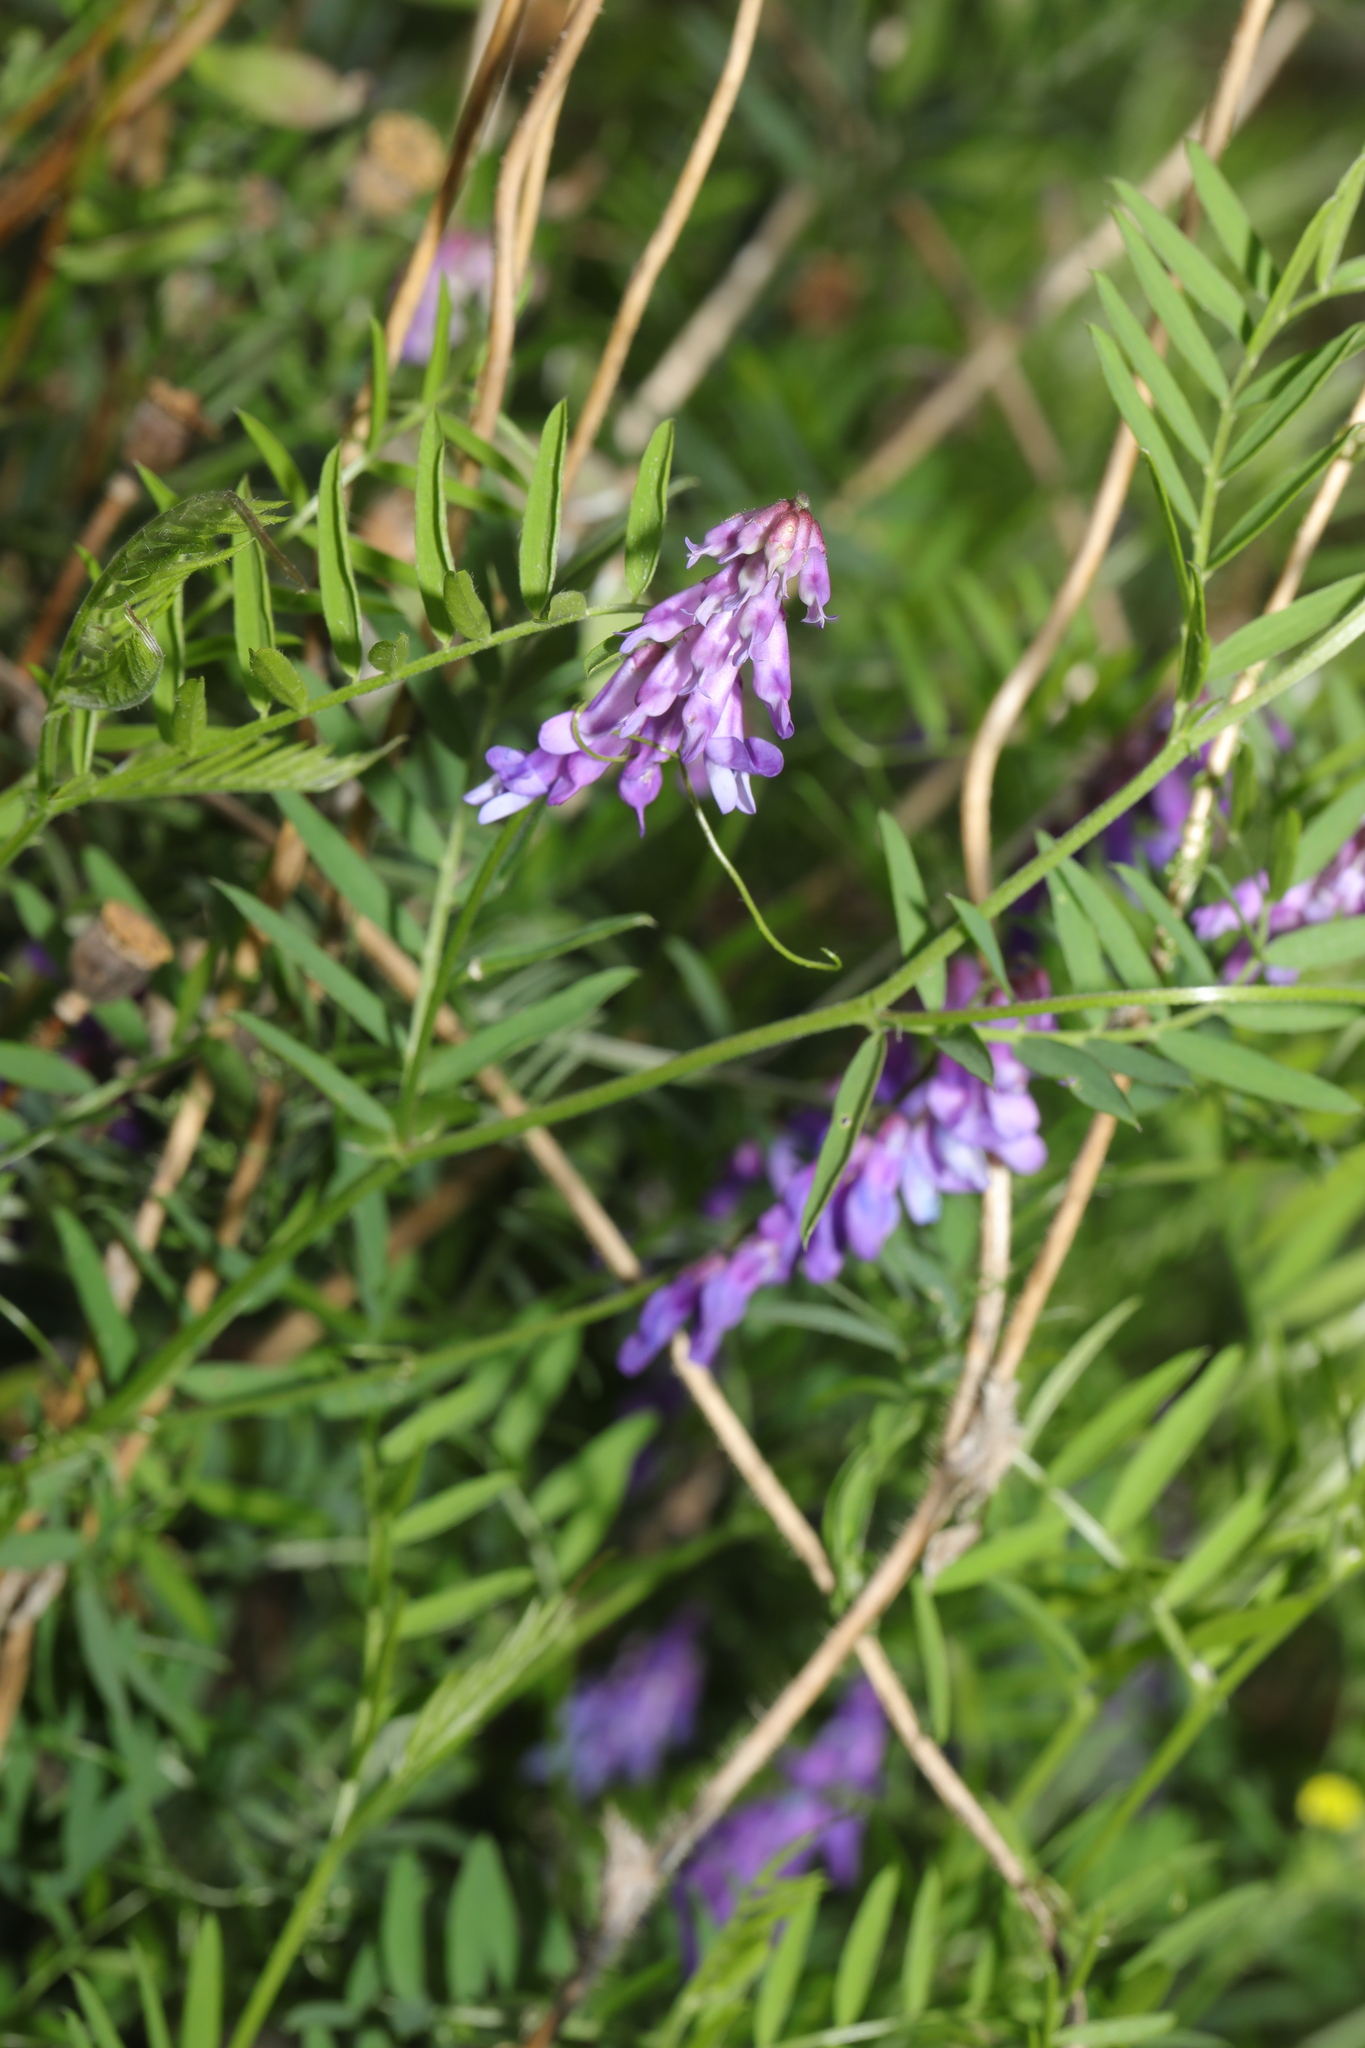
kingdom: Plantae
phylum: Tracheophyta
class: Magnoliopsida
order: Fabales
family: Fabaceae
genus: Vicia
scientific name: Vicia cracca
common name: Bird vetch
